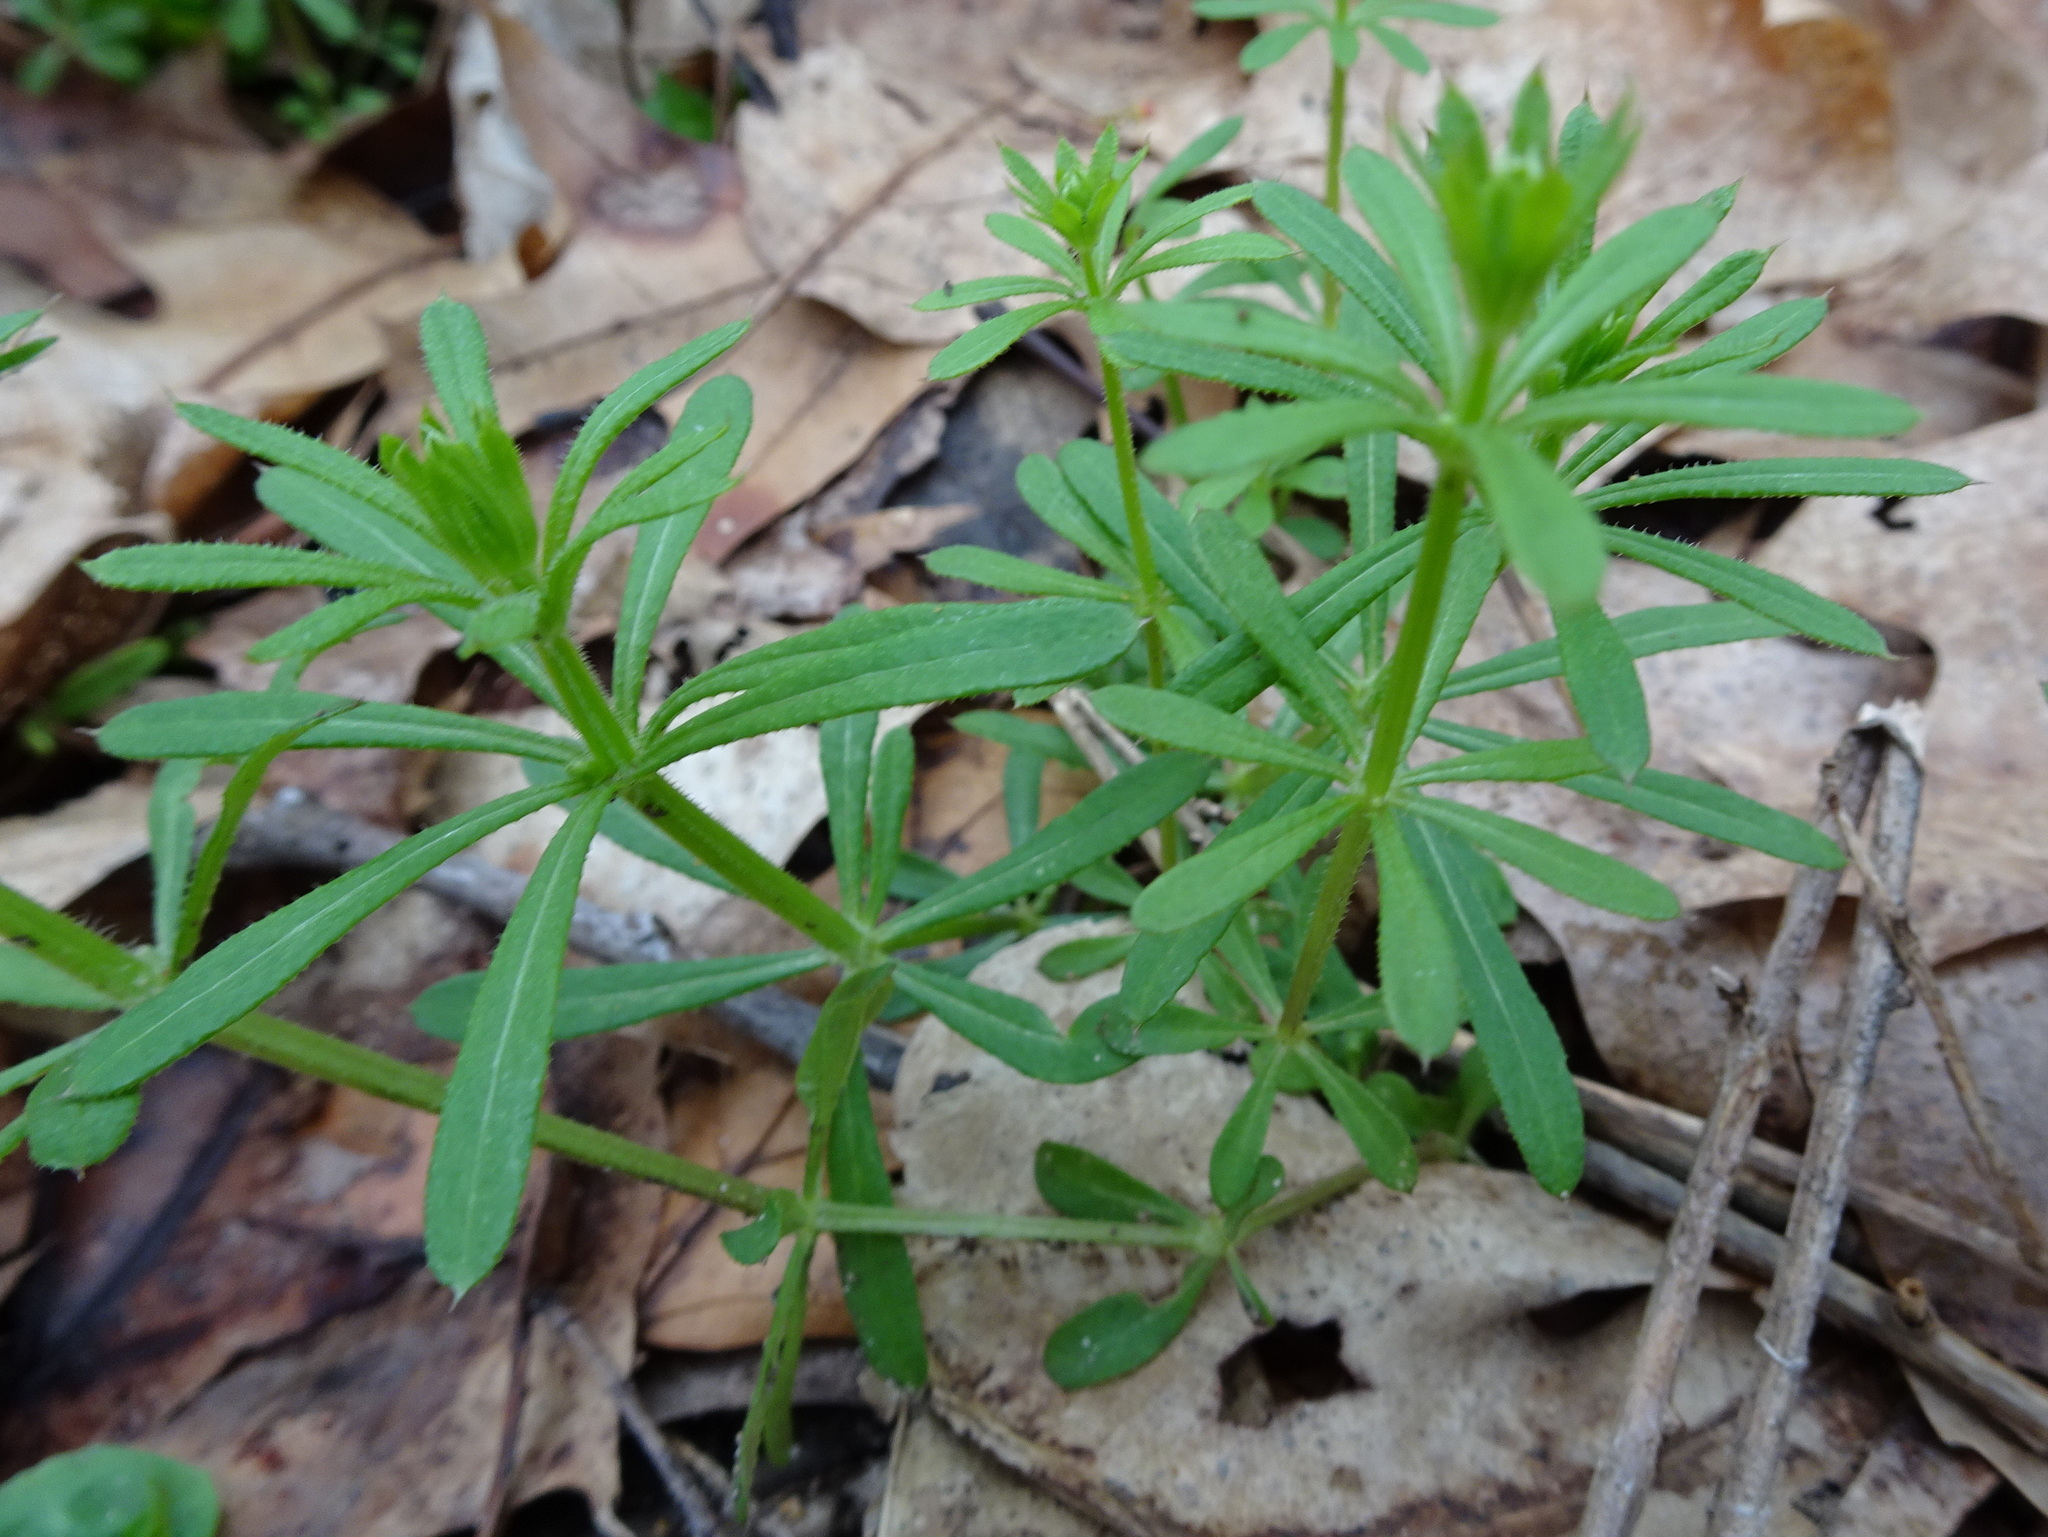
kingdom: Plantae
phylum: Tracheophyta
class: Magnoliopsida
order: Gentianales
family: Rubiaceae
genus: Galium
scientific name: Galium aparine
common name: Cleavers
